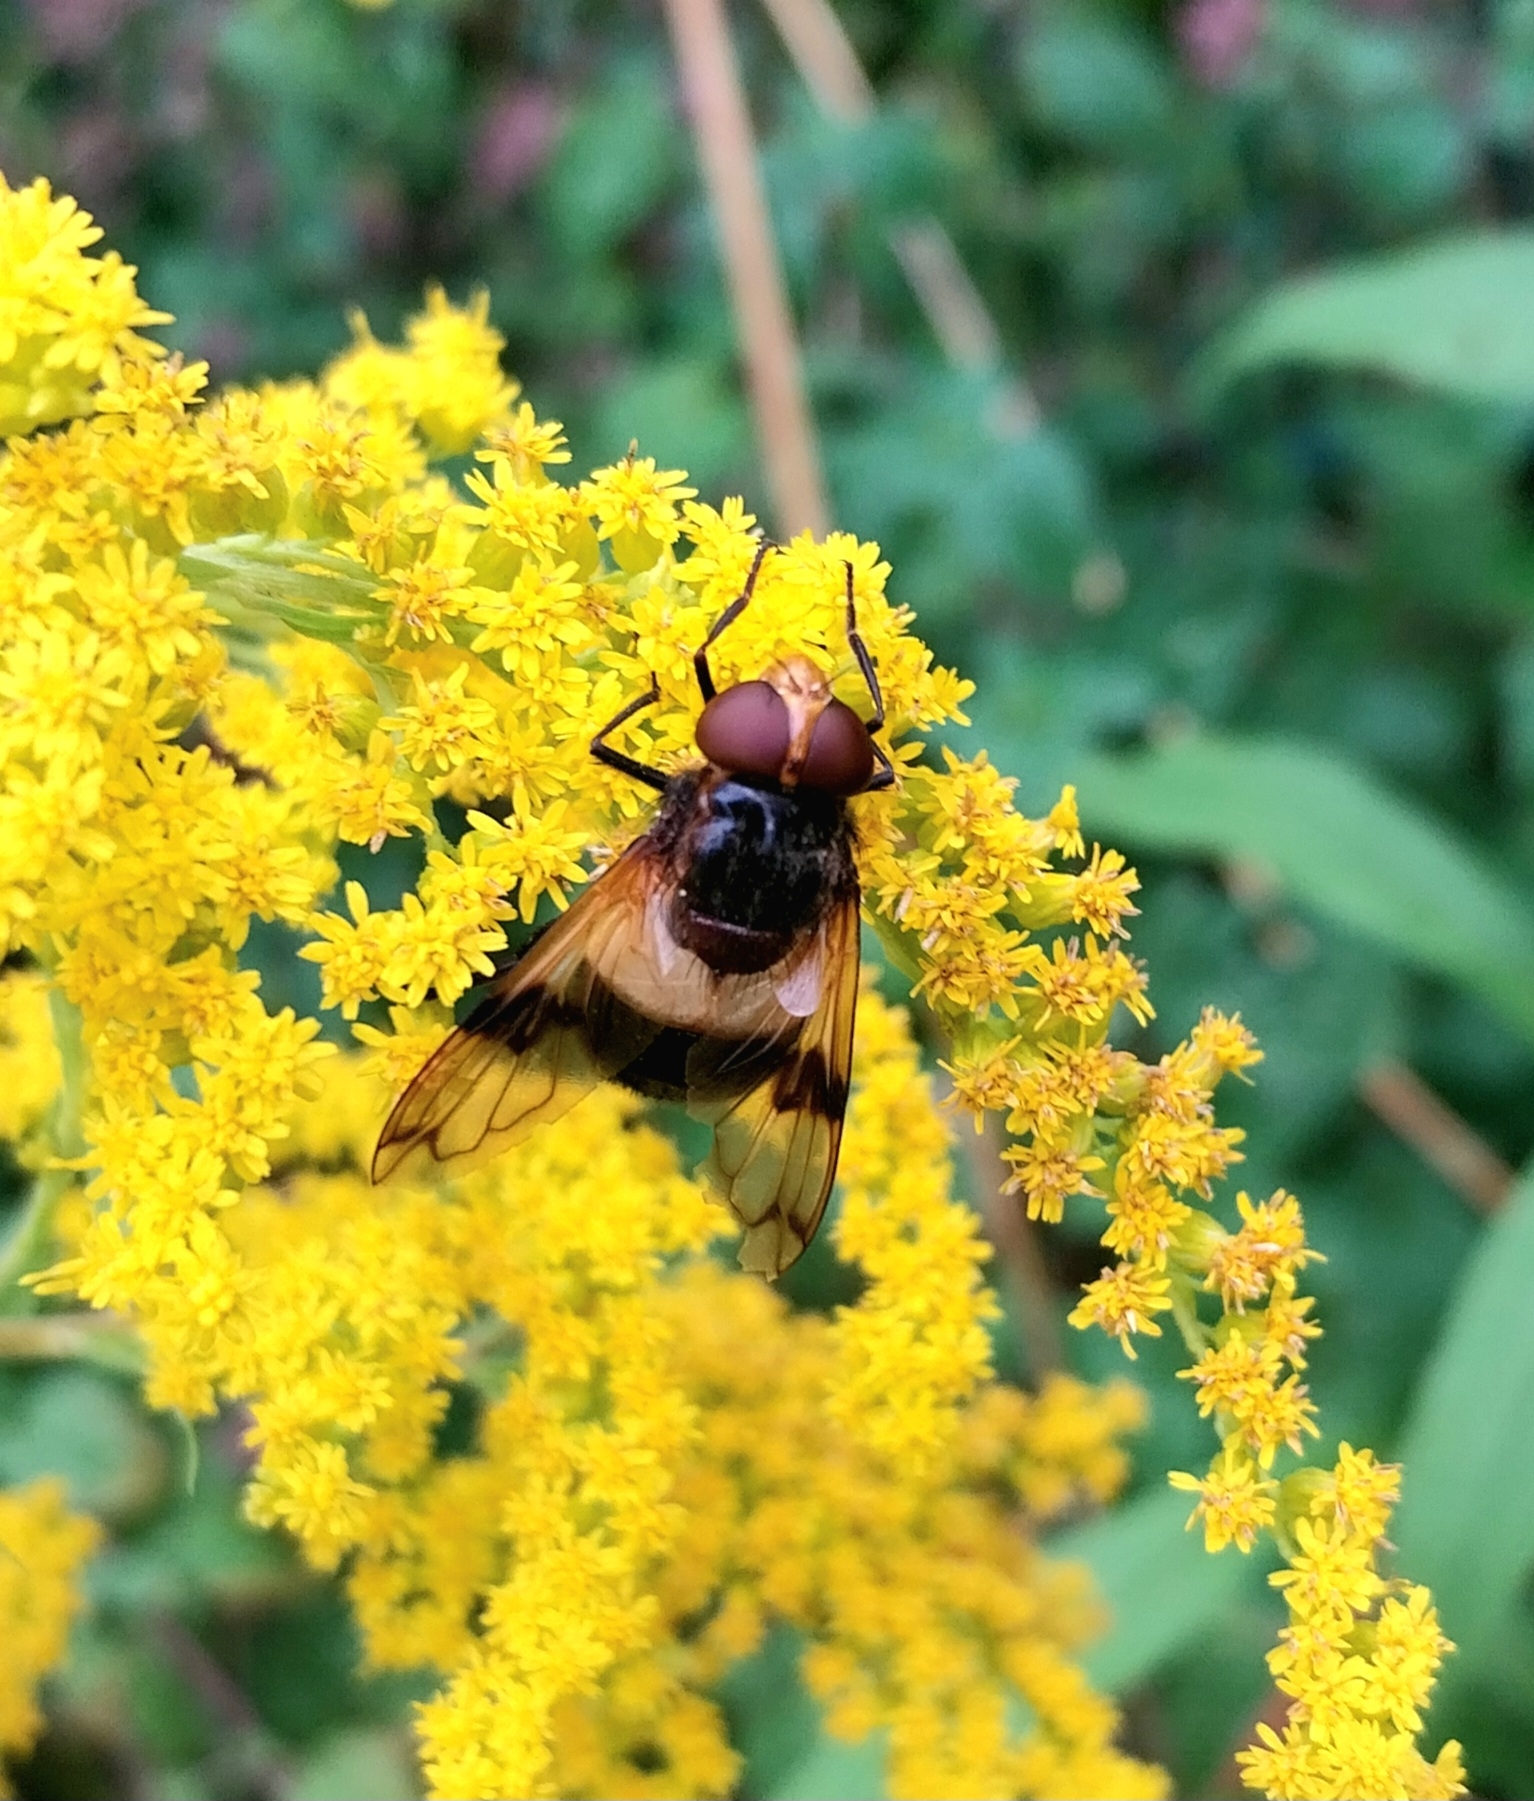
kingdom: Animalia
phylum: Arthropoda
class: Insecta
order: Diptera
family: Syrphidae
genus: Volucella
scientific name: Volucella pellucens
